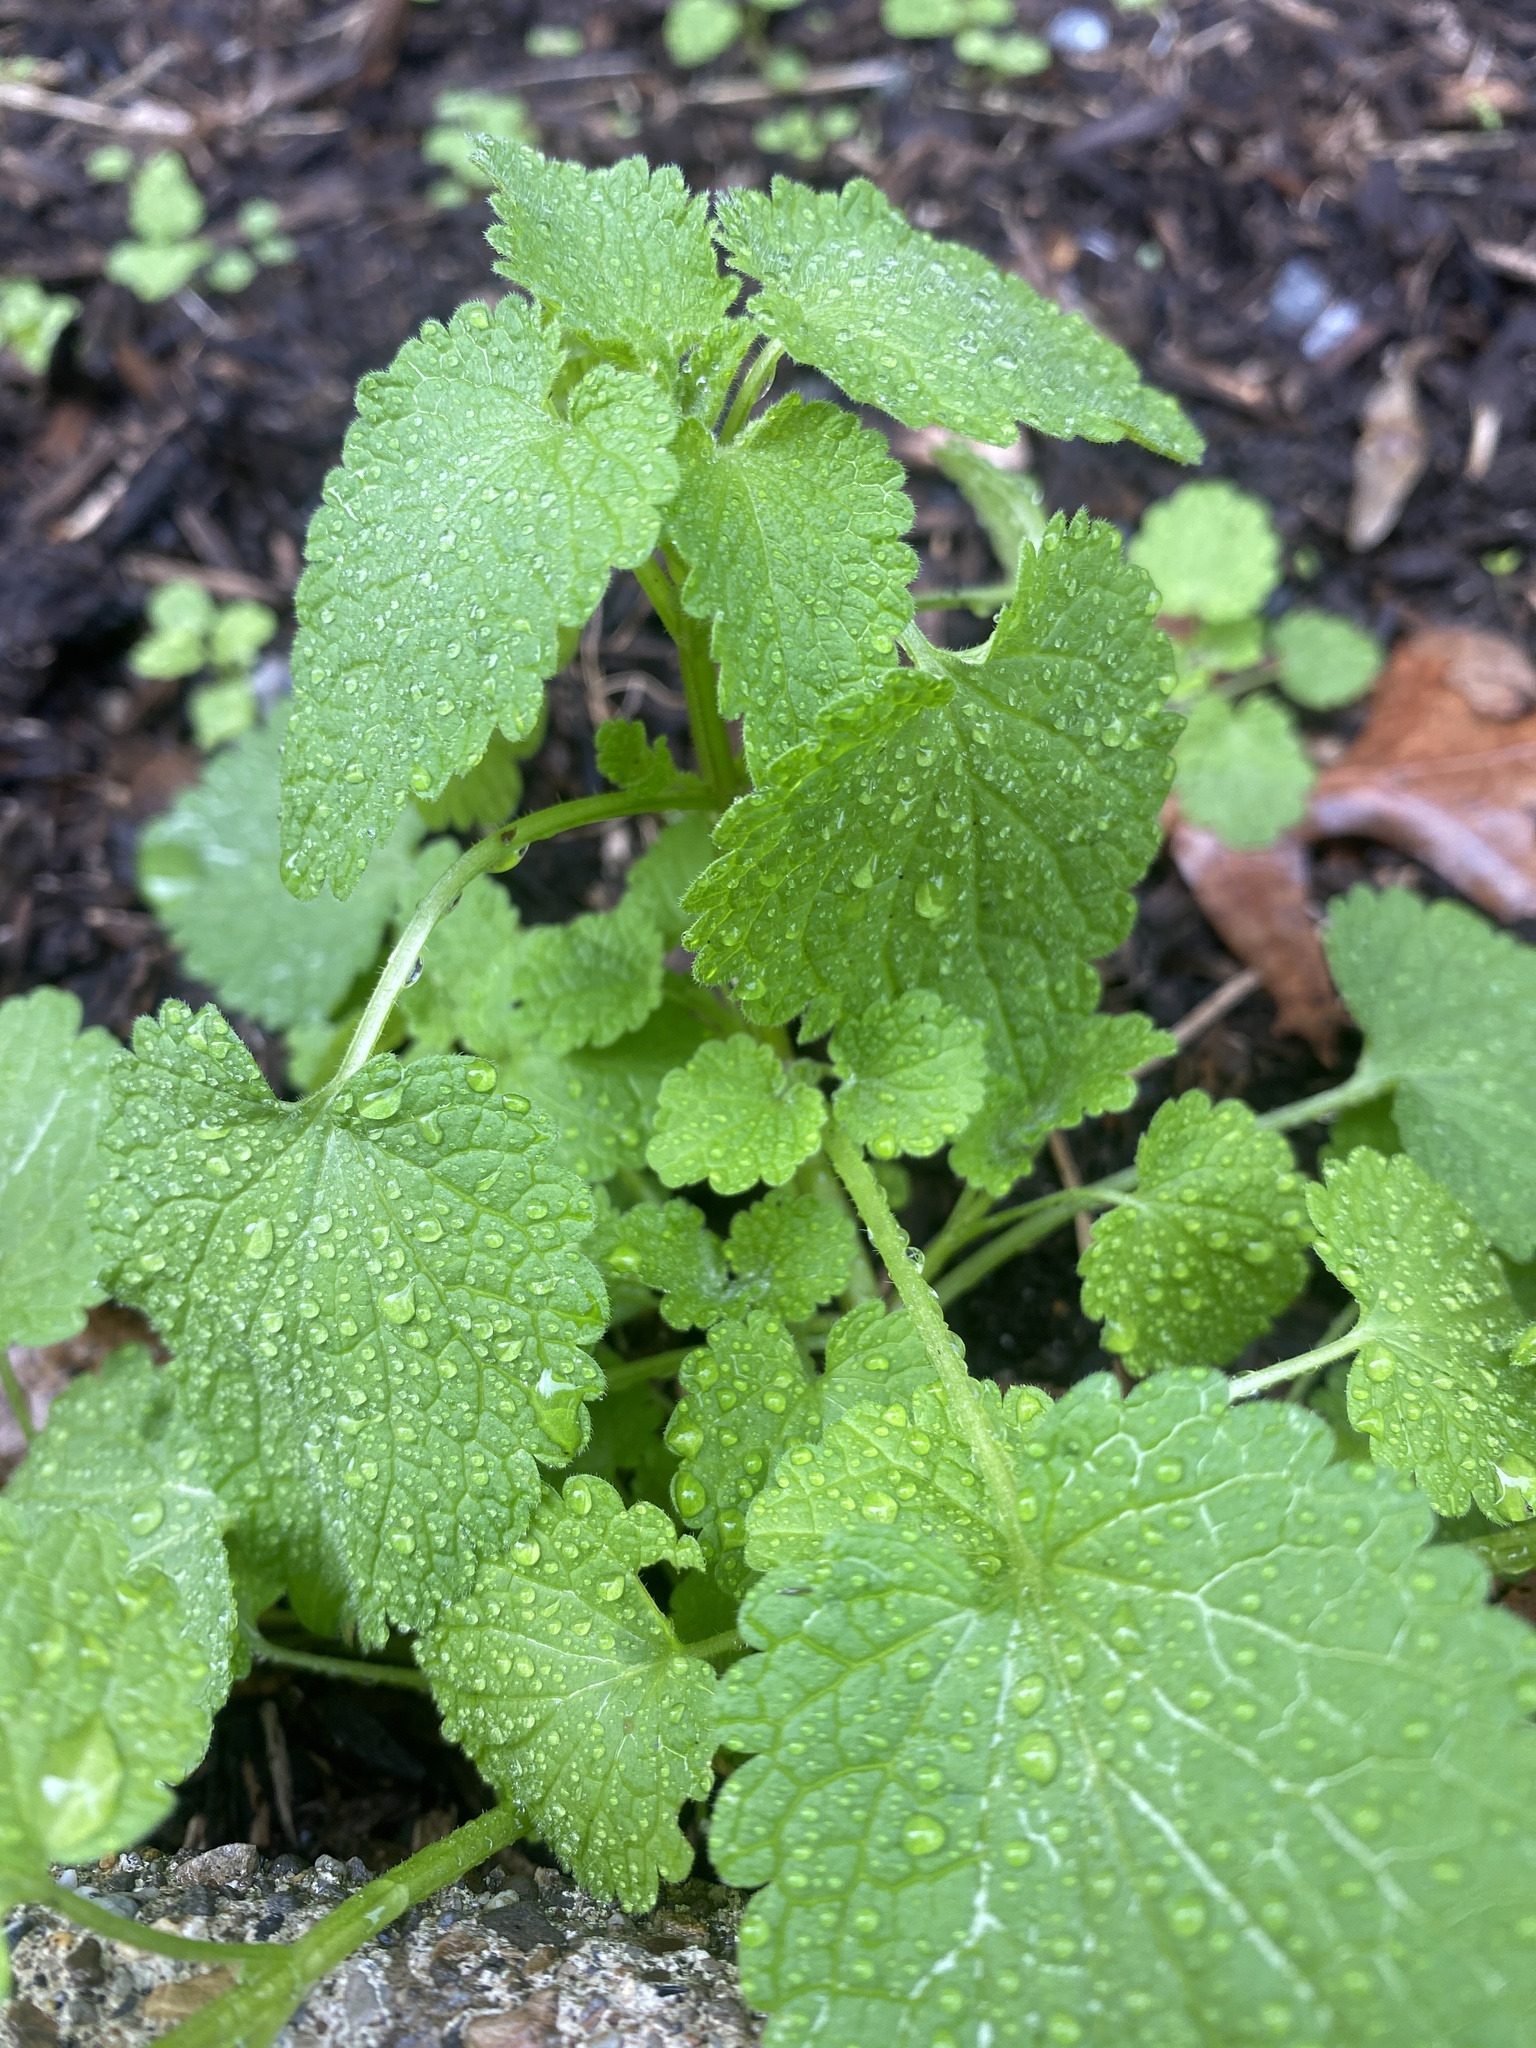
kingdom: Plantae
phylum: Tracheophyta
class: Magnoliopsida
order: Lamiales
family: Lamiaceae
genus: Lamium
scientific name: Lamium purpureum
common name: Red dead-nettle
